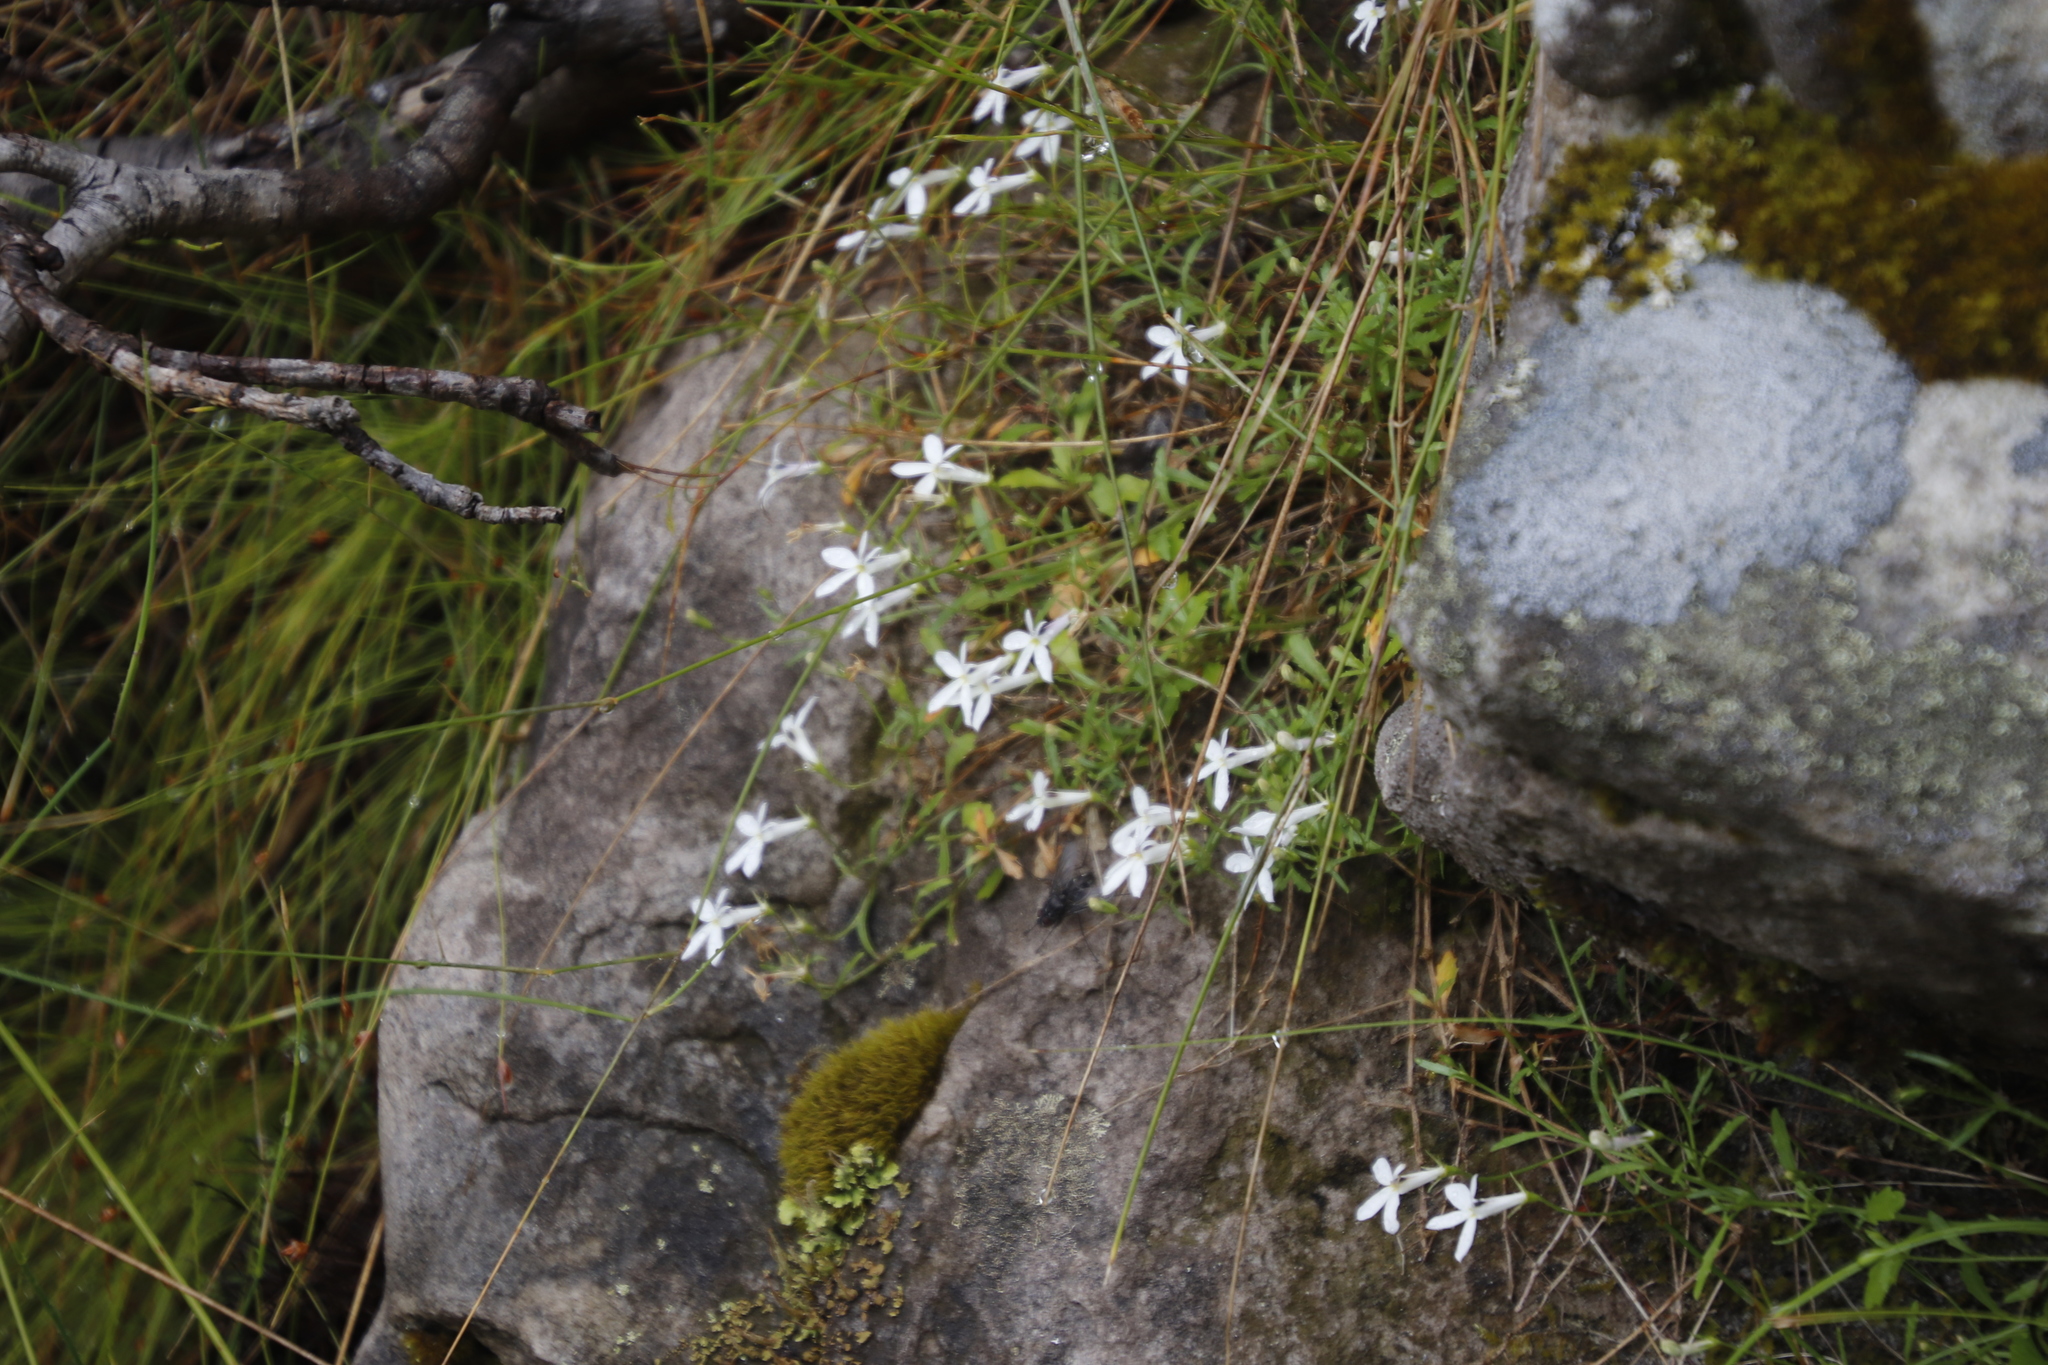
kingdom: Plantae
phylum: Tracheophyta
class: Magnoliopsida
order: Asterales
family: Campanulaceae
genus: Lobelia
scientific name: Lobelia pubescens
